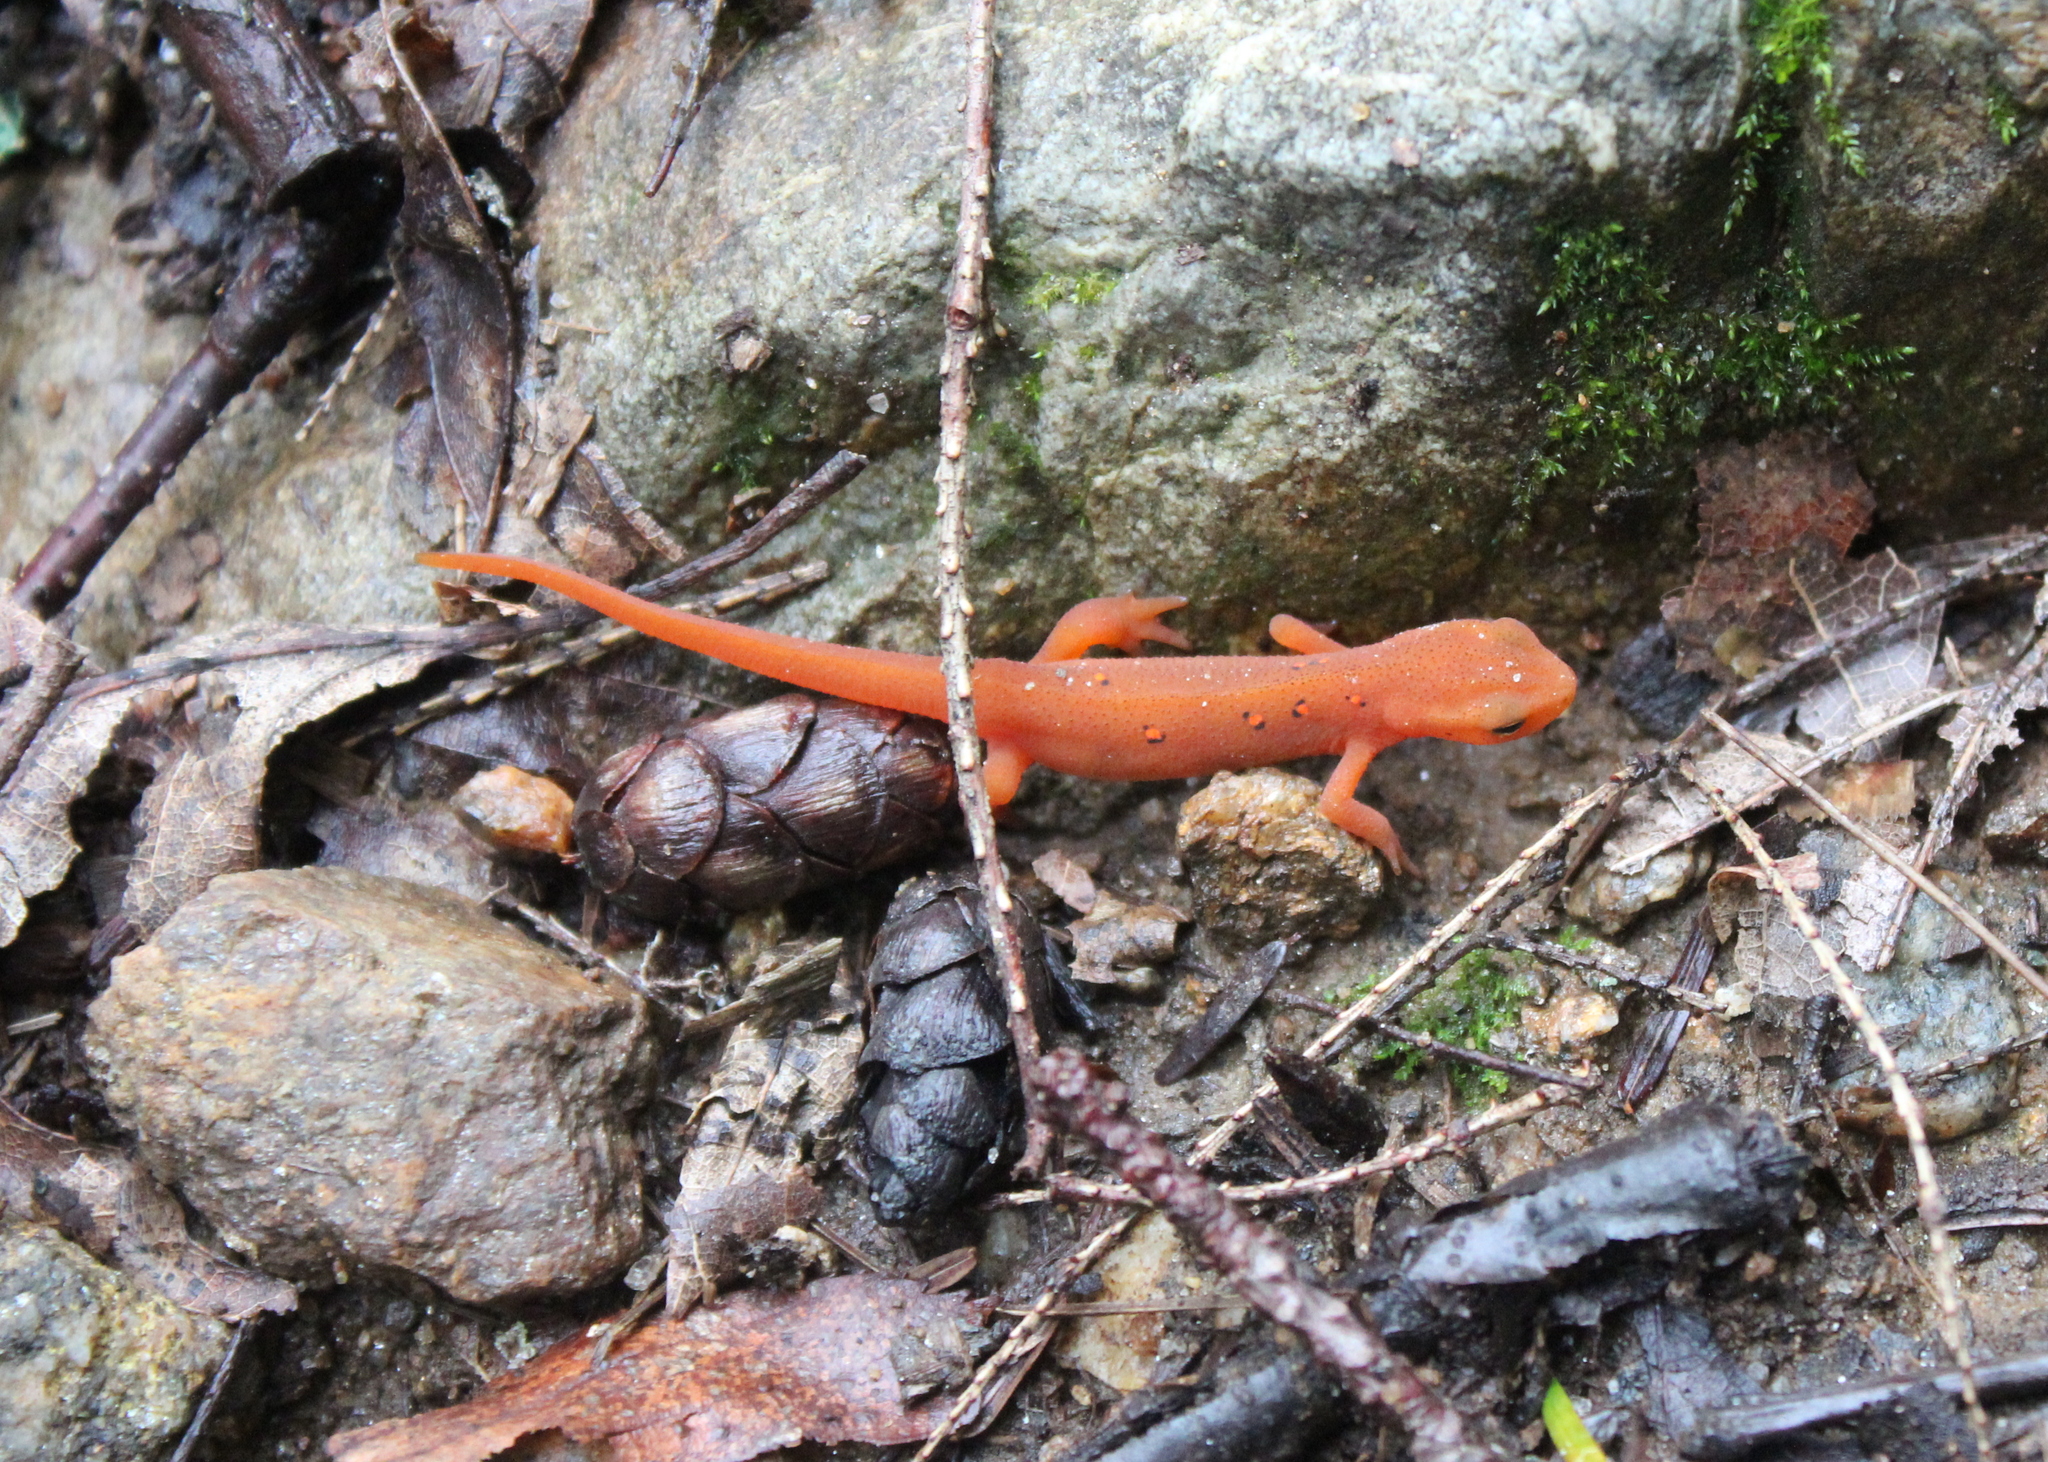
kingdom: Animalia
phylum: Chordata
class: Amphibia
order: Caudata
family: Salamandridae
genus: Notophthalmus
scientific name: Notophthalmus viridescens
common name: Eastern newt
